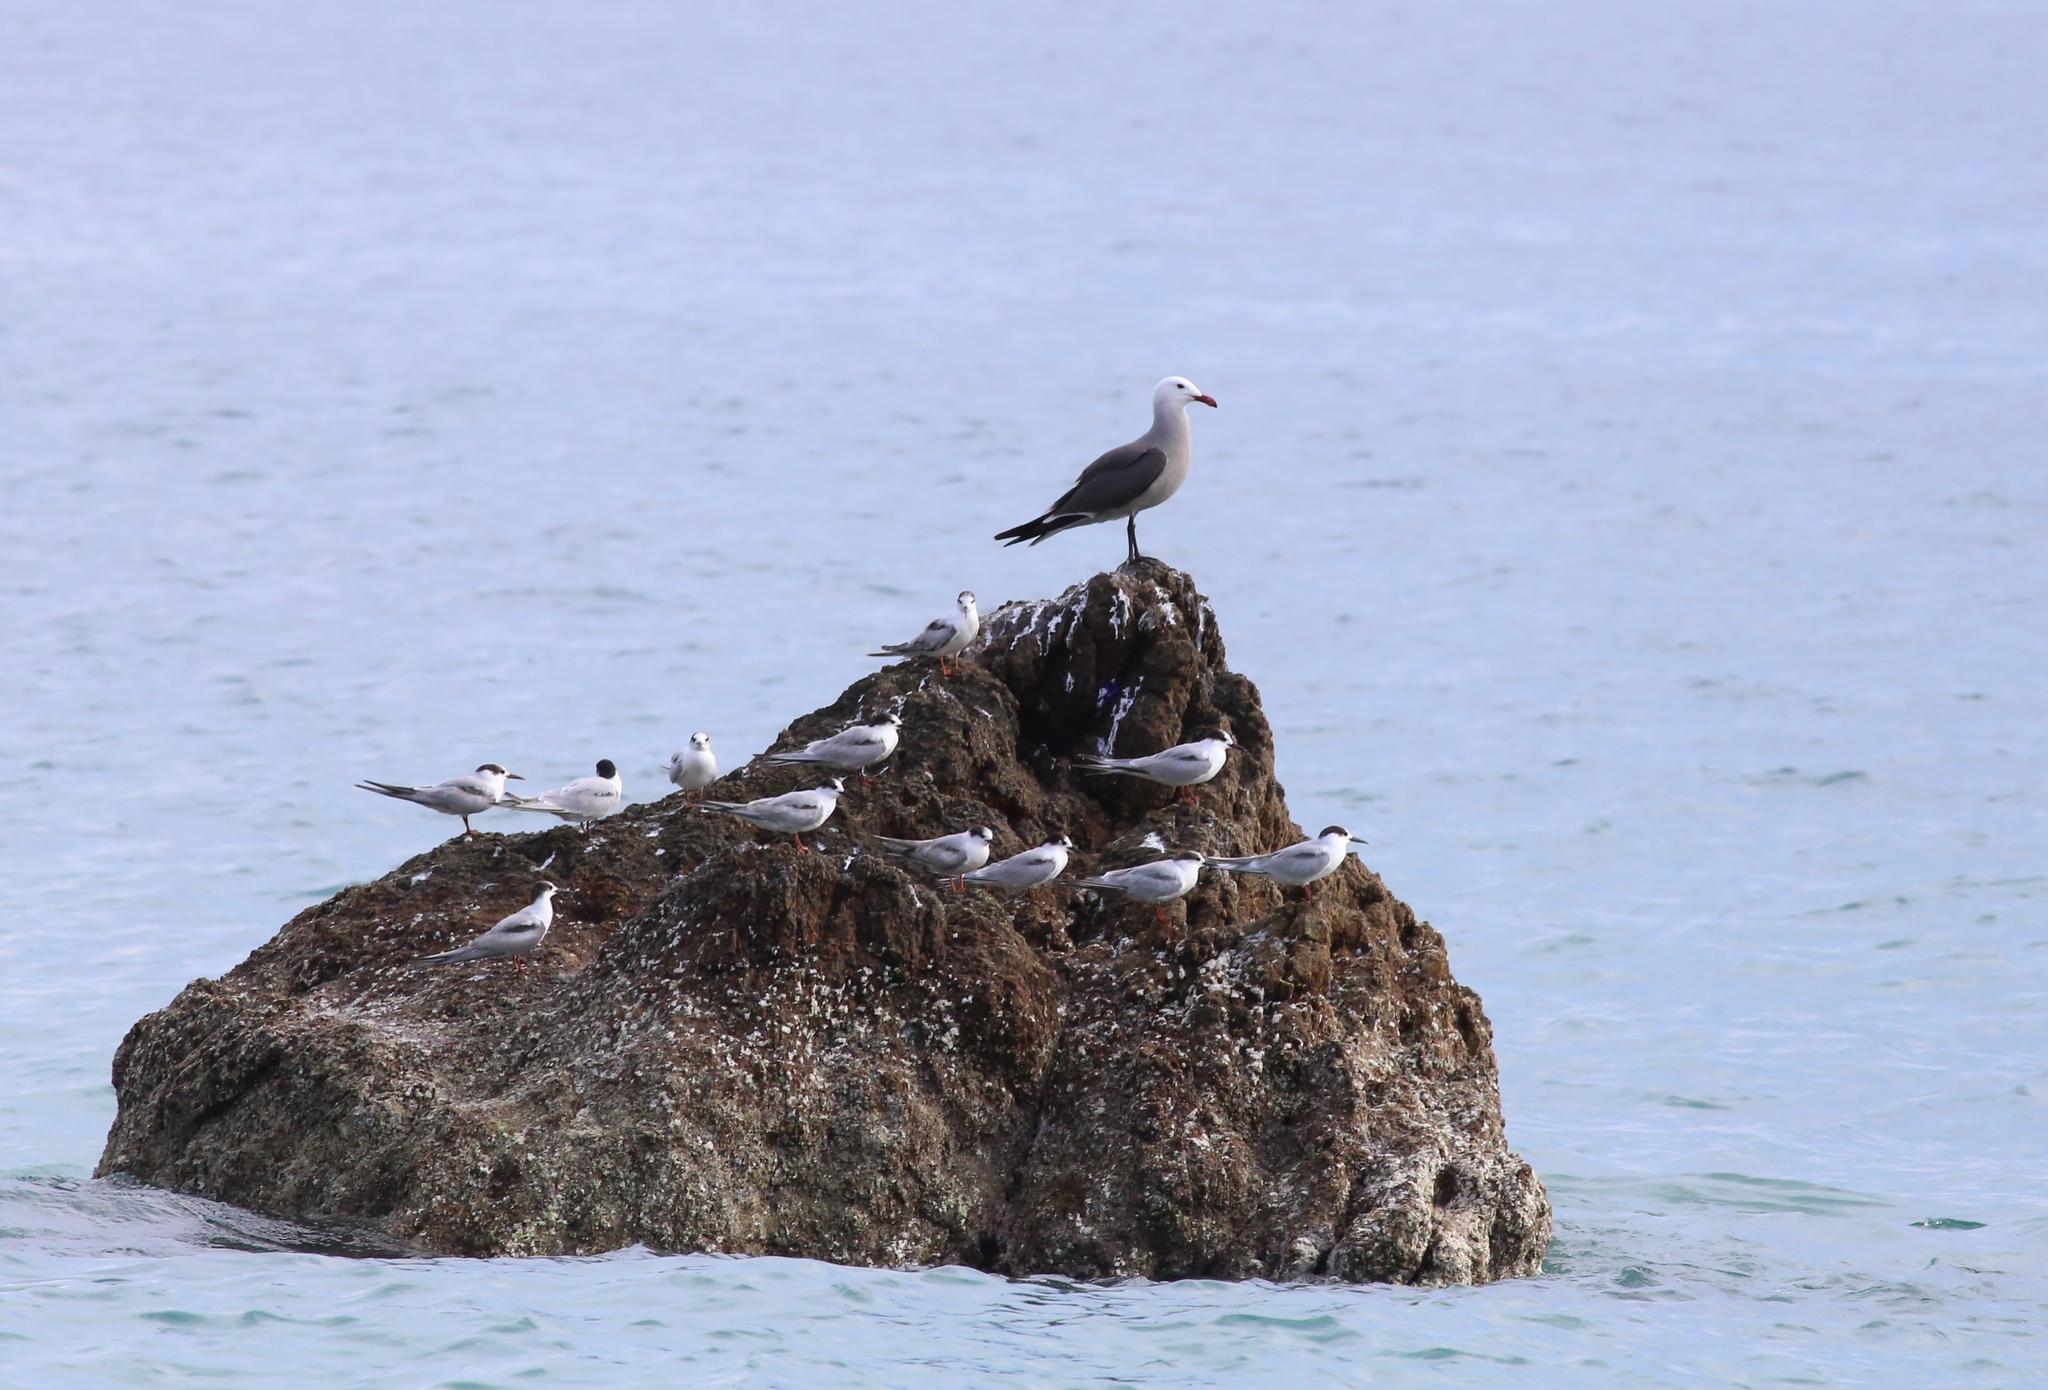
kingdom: Animalia
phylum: Chordata
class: Aves
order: Charadriiformes
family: Laridae
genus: Larus
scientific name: Larus heermanni
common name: Heermann's gull
